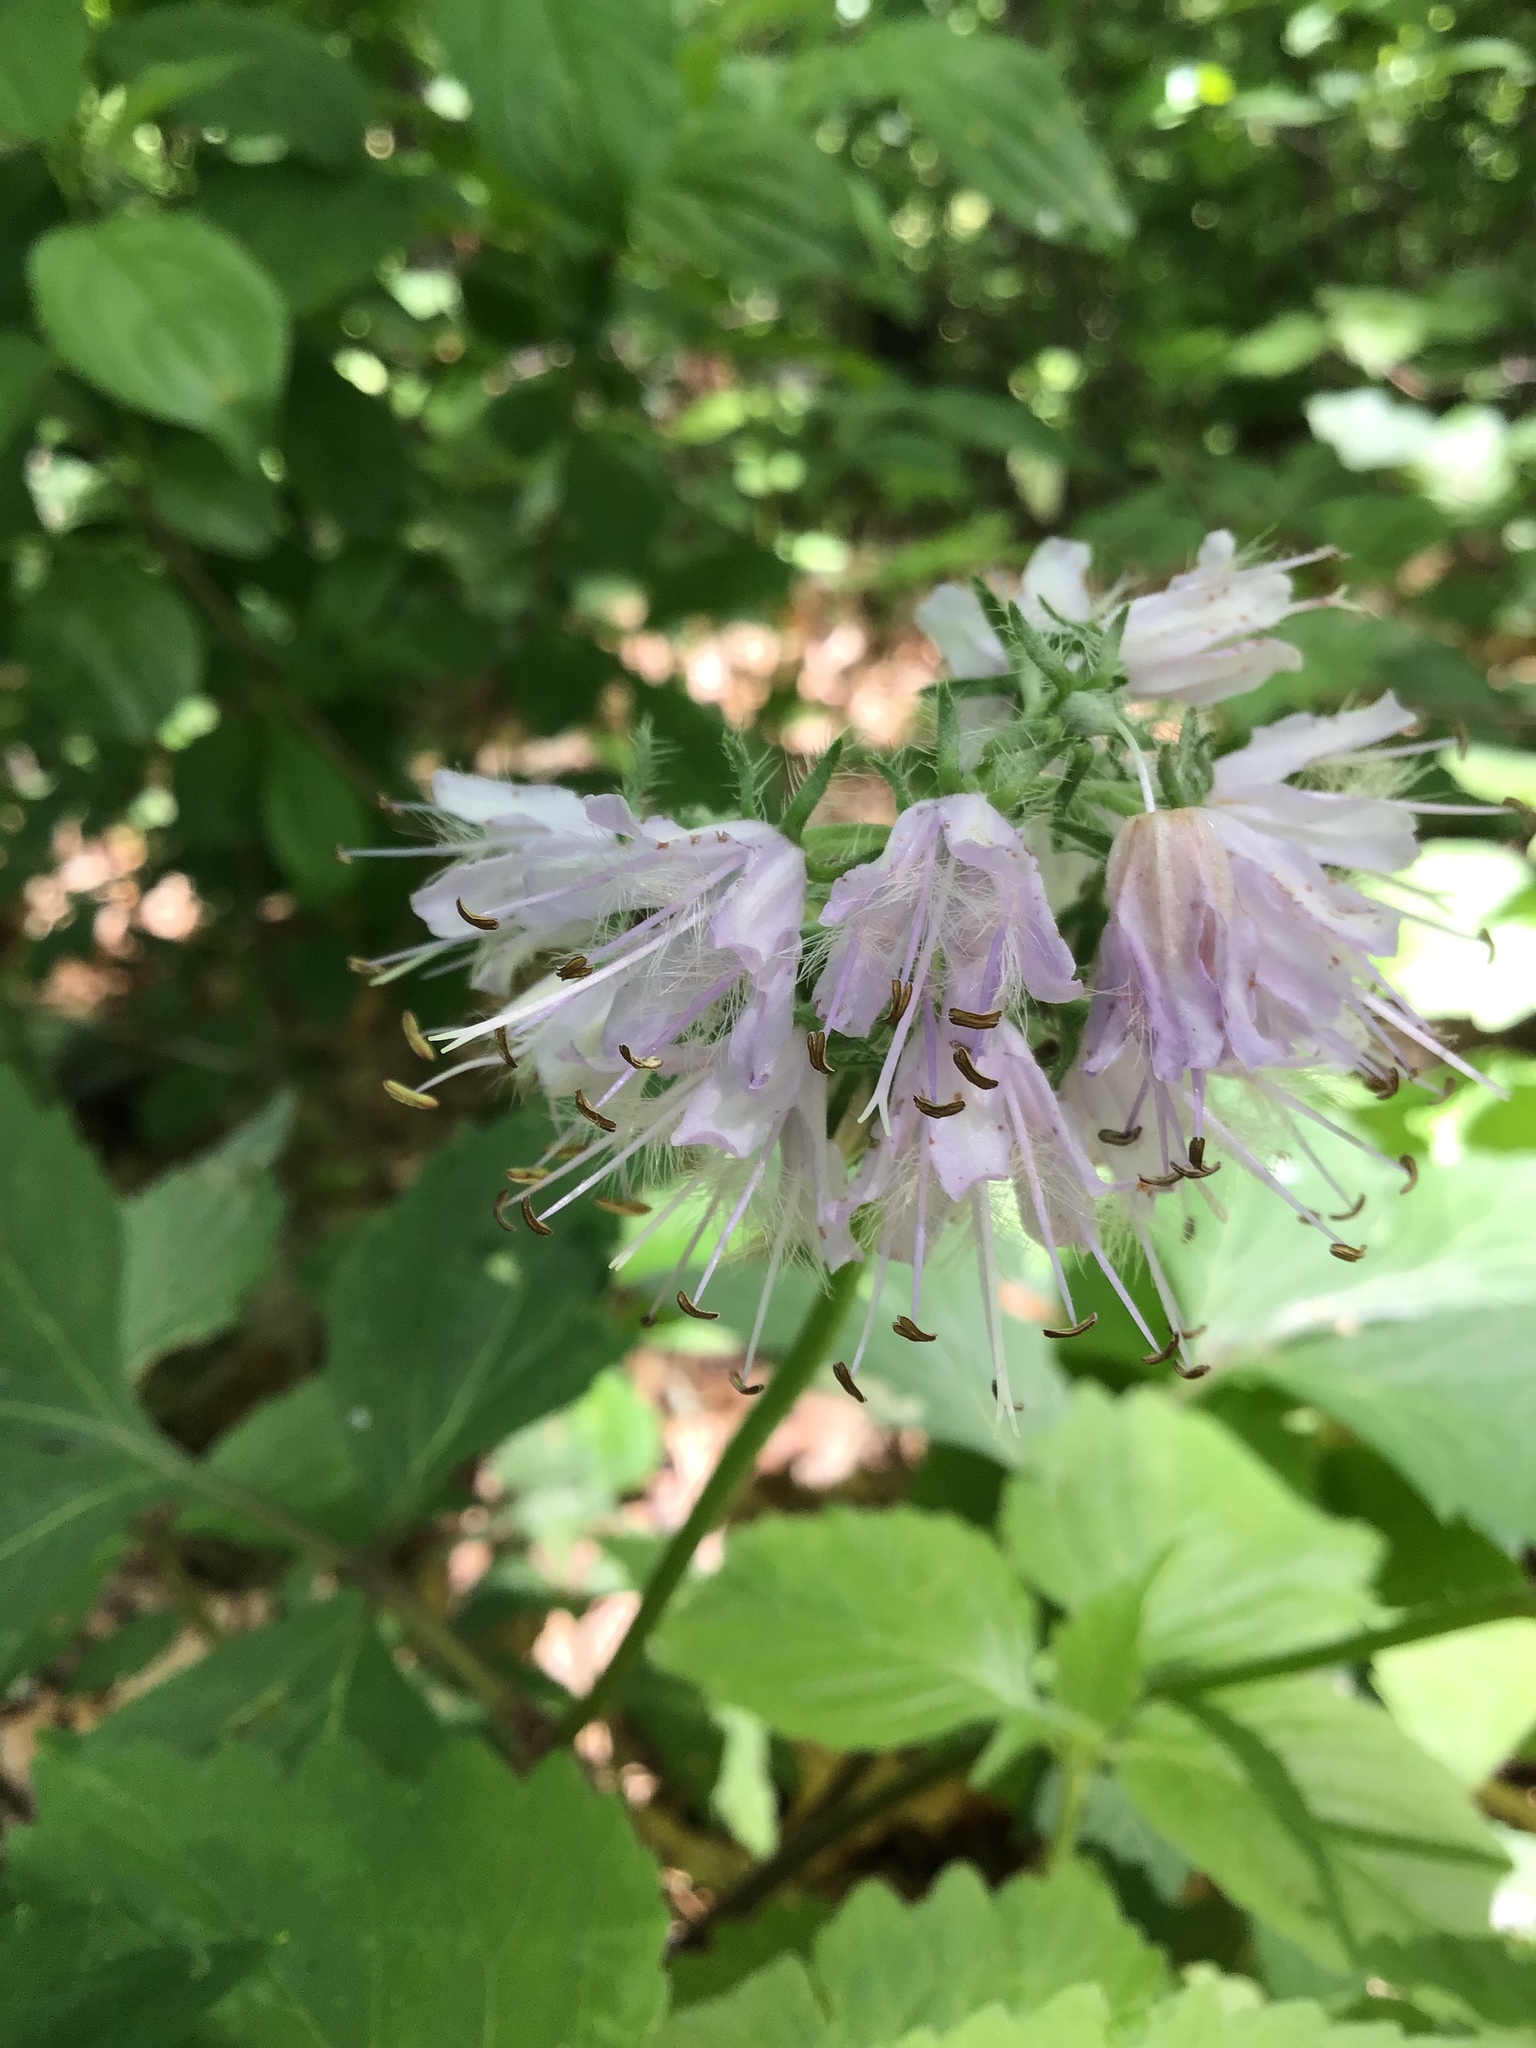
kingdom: Plantae
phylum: Tracheophyta
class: Magnoliopsida
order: Boraginales
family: Hydrophyllaceae
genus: Hydrophyllum
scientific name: Hydrophyllum virginianum
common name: Virginia waterleaf
